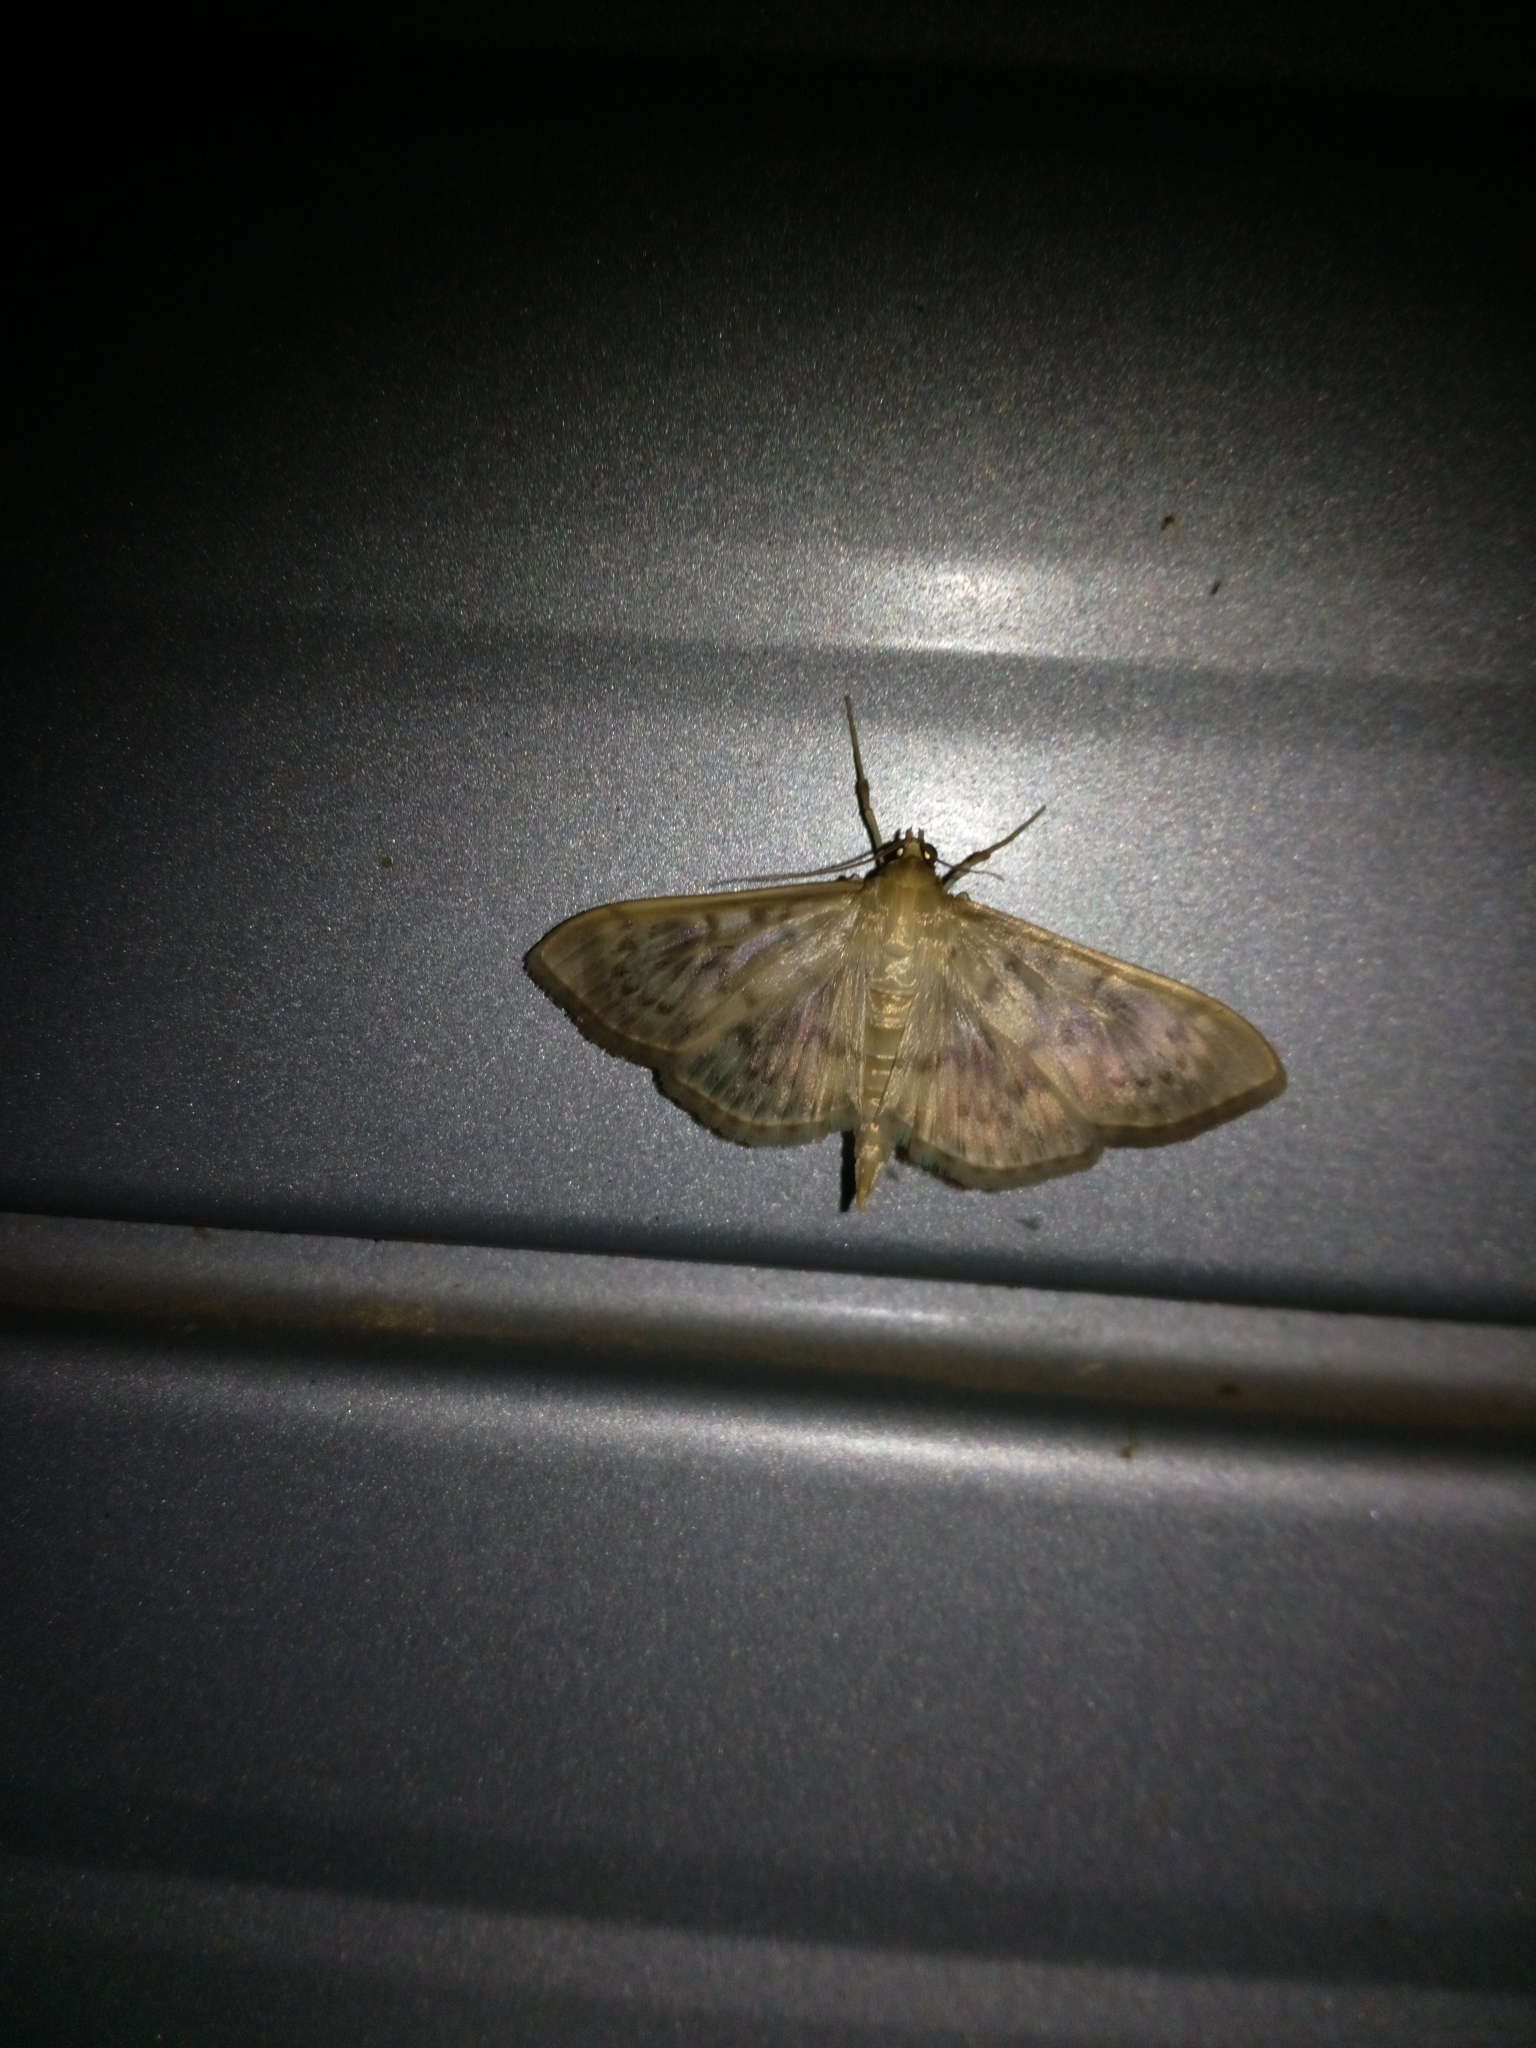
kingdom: Animalia
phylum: Arthropoda
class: Insecta
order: Lepidoptera
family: Crambidae
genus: Patania
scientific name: Patania ruralis
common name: Mother of pearl
